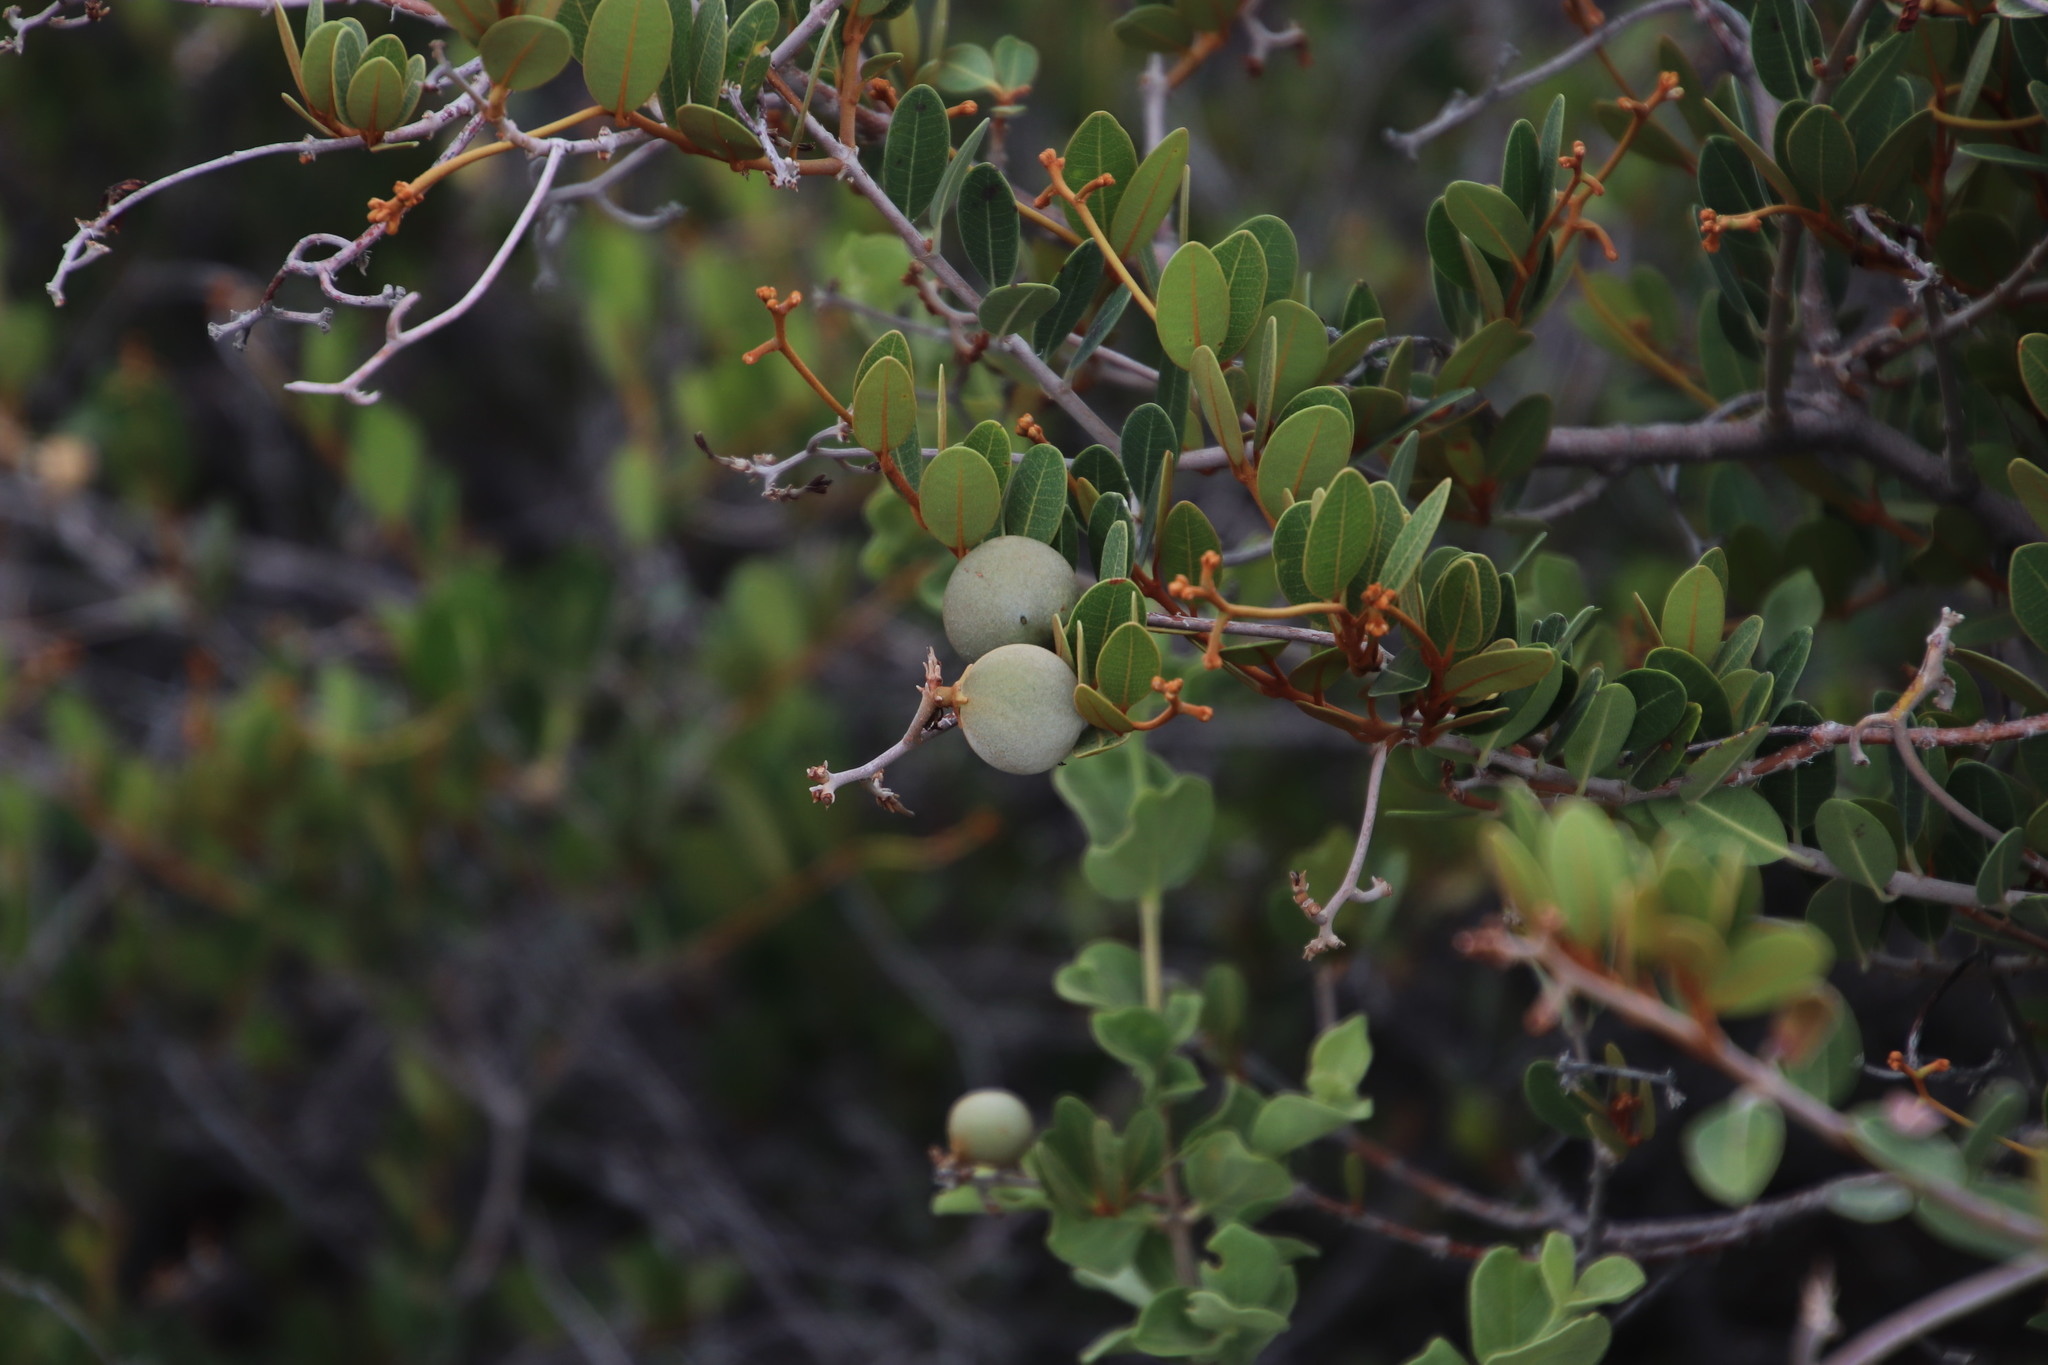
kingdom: Plantae
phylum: Tracheophyta
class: Magnoliopsida
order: Gentianales
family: Apocynaceae
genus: Ancylobothrys
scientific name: Ancylobothrys capensis
